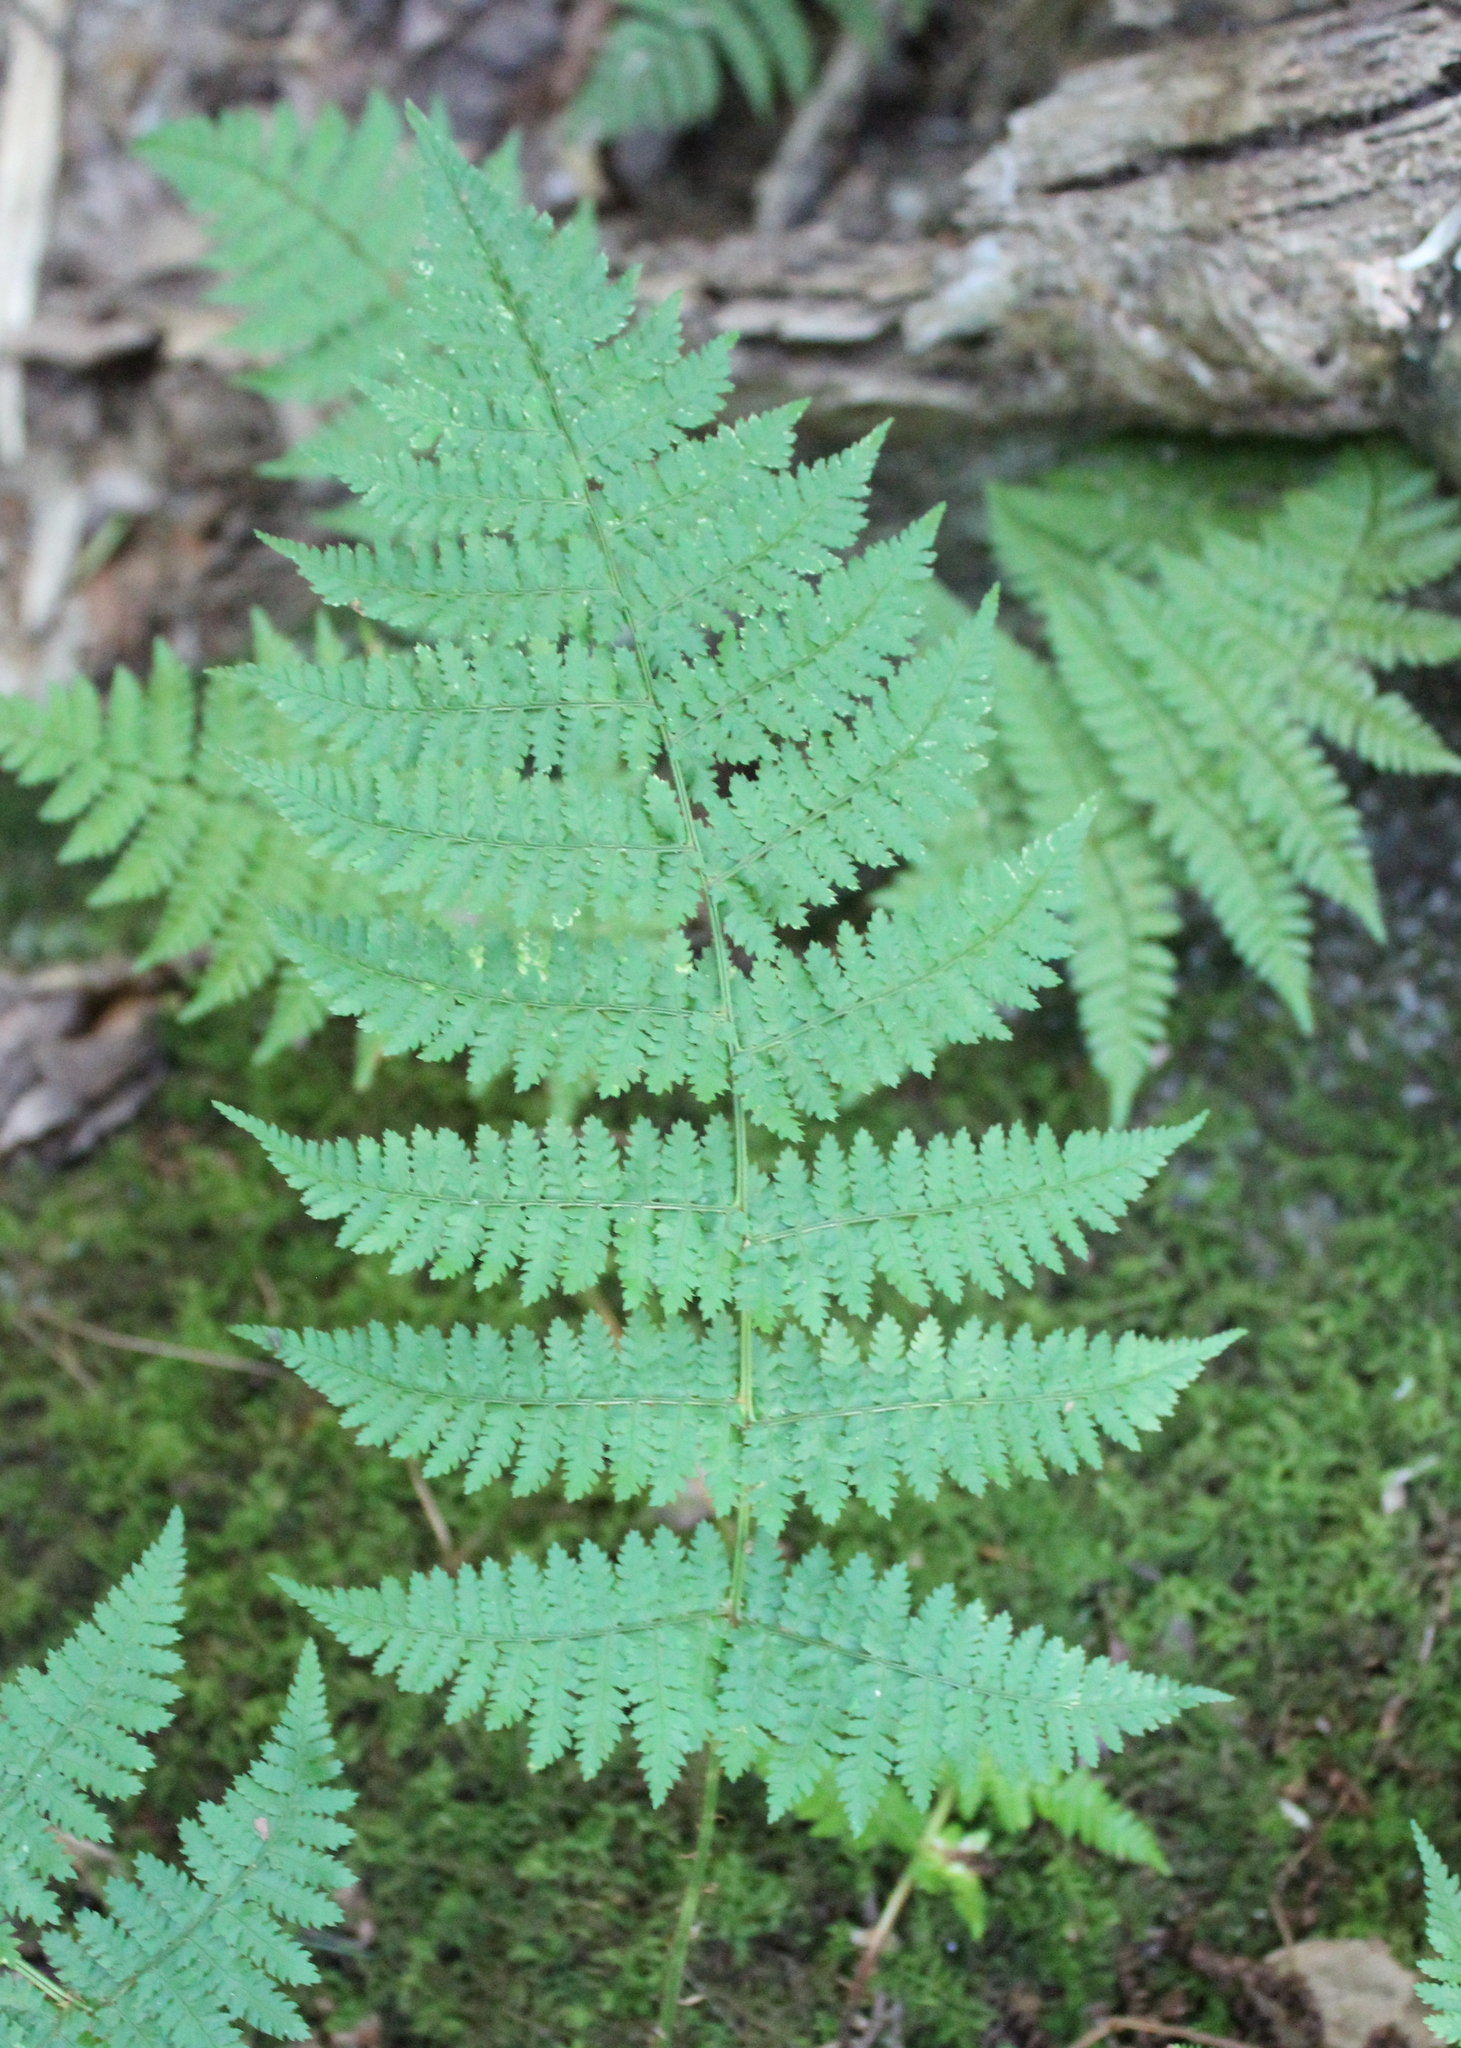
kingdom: Plantae
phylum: Tracheophyta
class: Polypodiopsida
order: Polypodiales
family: Dryopteridaceae
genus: Dryopteris
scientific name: Dryopteris intermedia
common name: Evergreen wood fern
